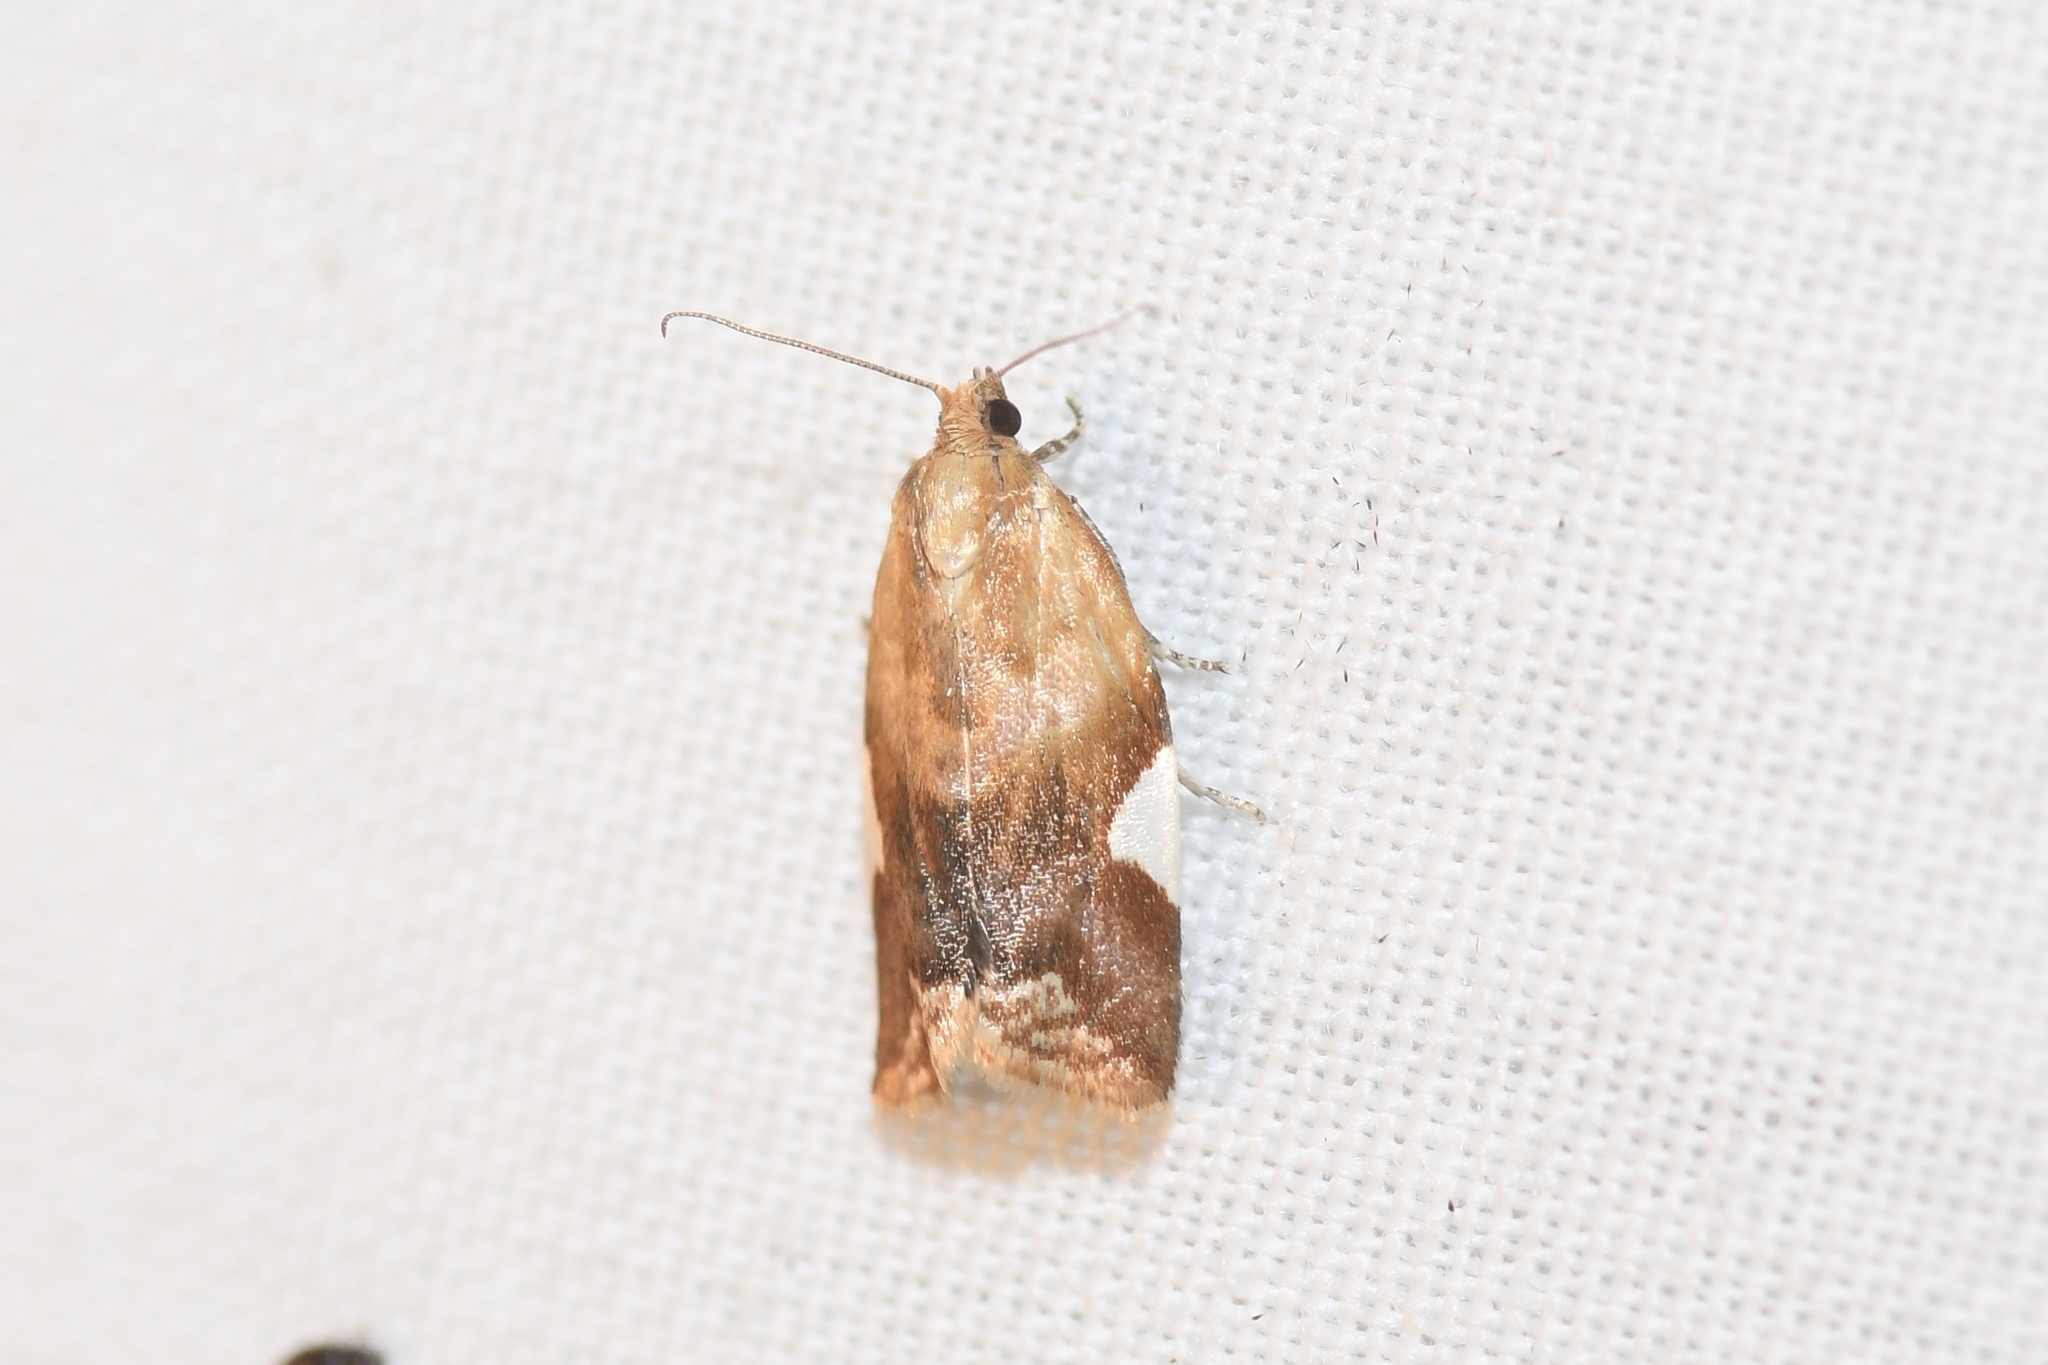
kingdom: Animalia
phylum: Arthropoda
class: Insecta
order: Lepidoptera
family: Tortricidae
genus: Clepsis
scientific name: Clepsis persicana
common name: White triangle tortrix
